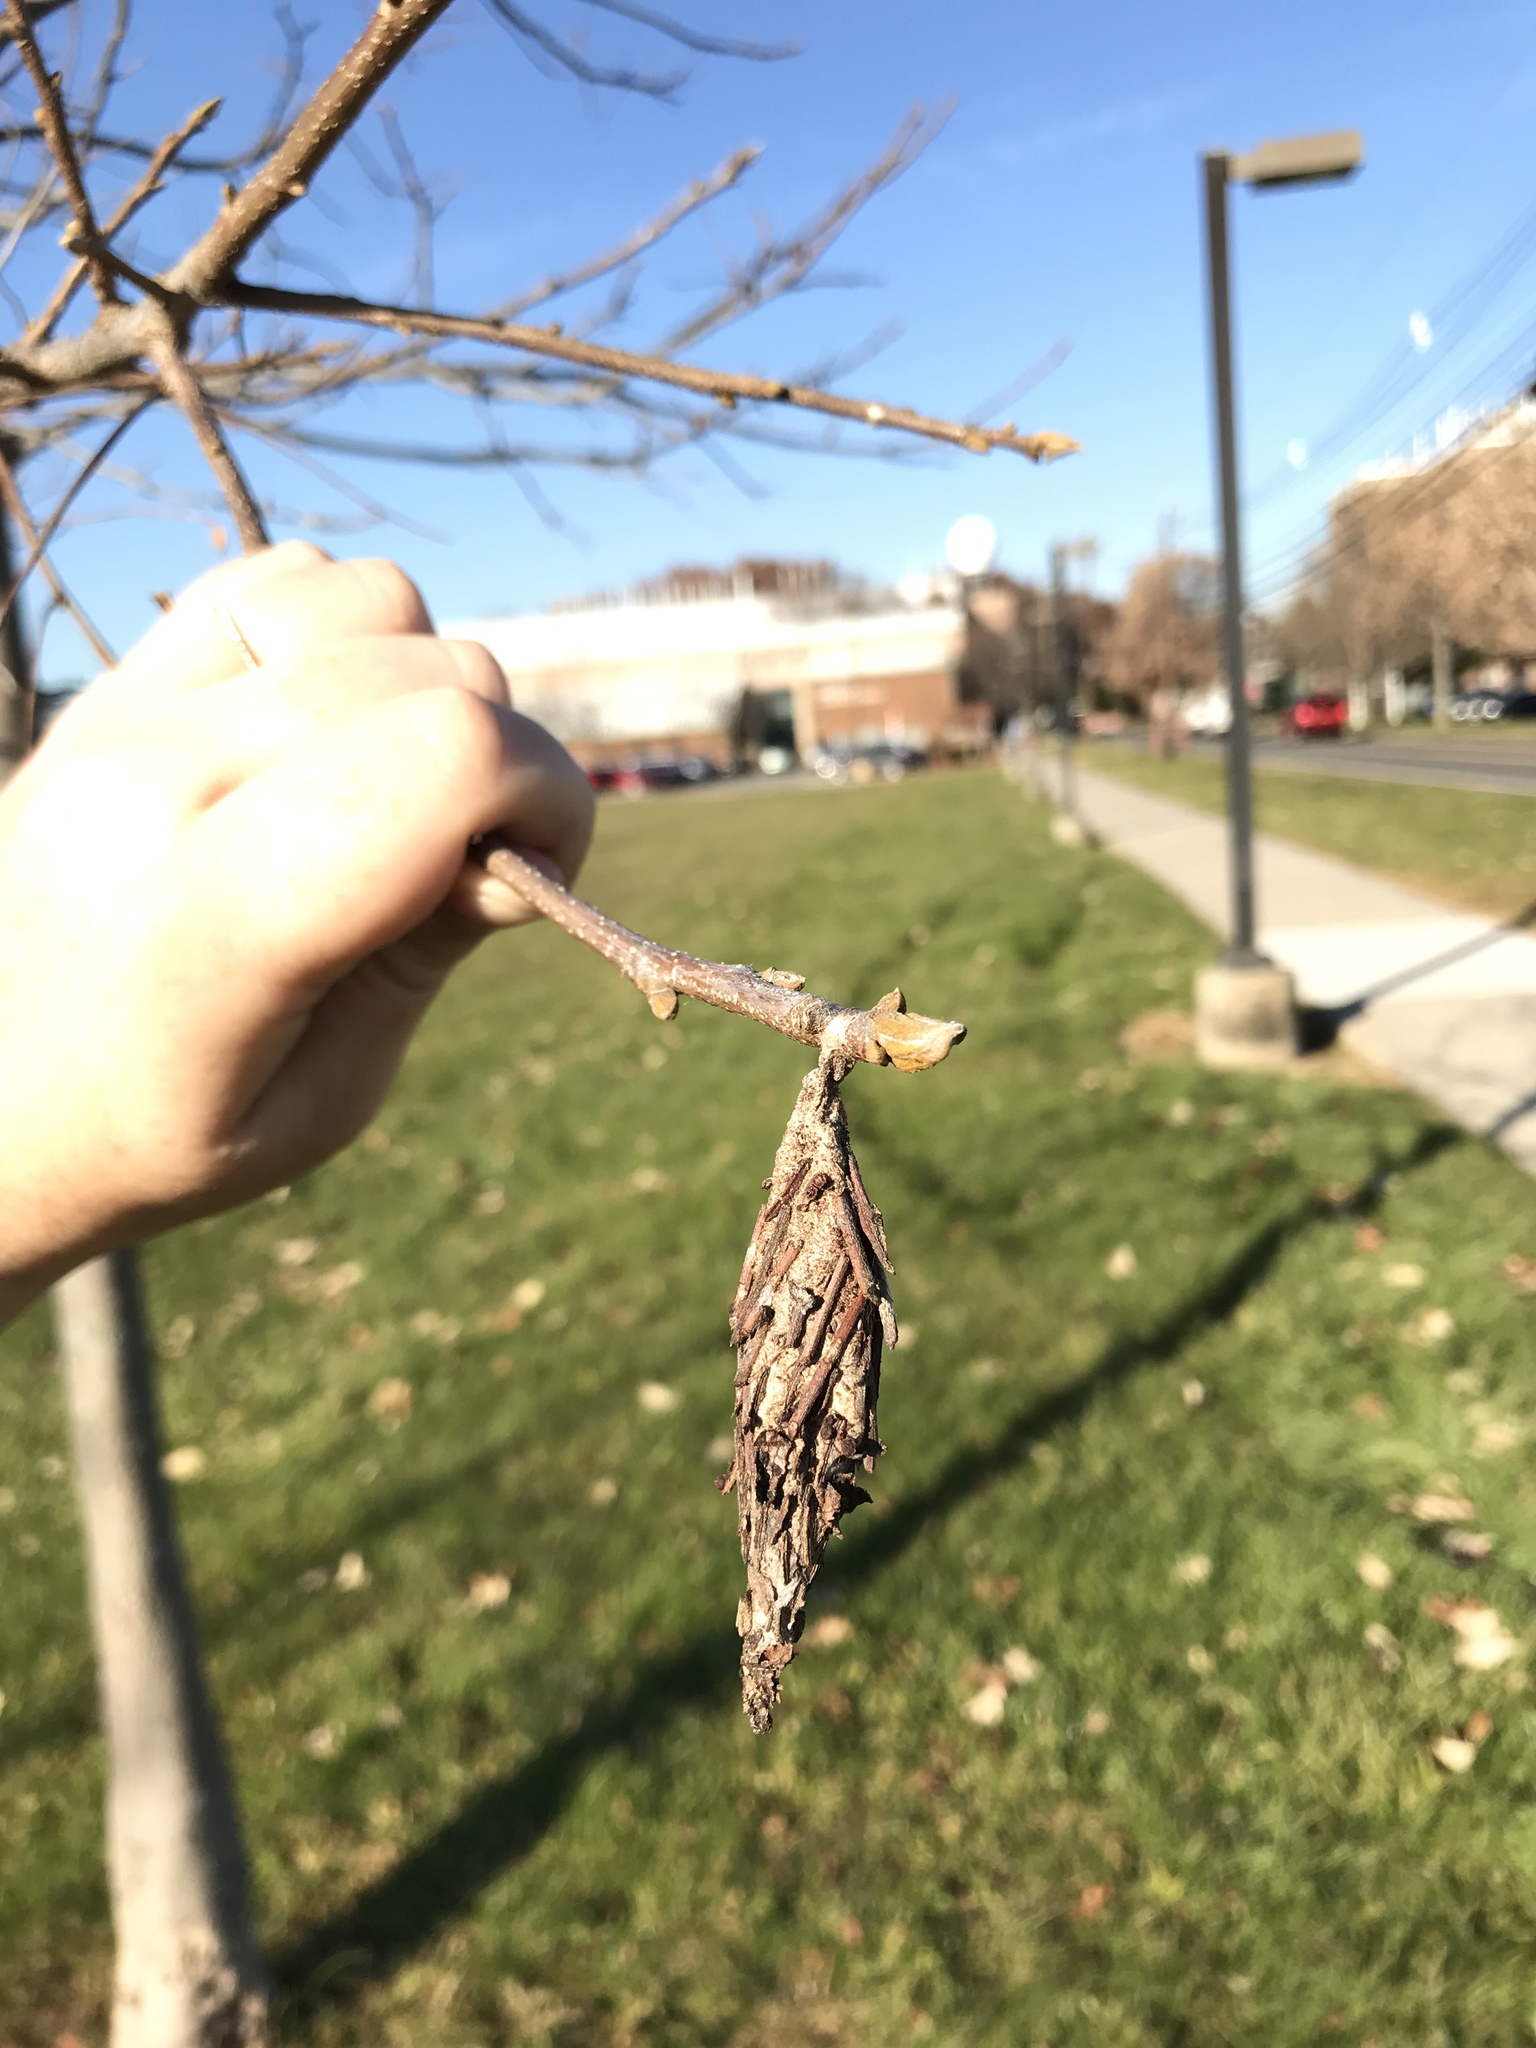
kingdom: Animalia
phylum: Arthropoda
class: Insecta
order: Lepidoptera
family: Psychidae
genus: Thyridopteryx
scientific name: Thyridopteryx ephemeraeformis
